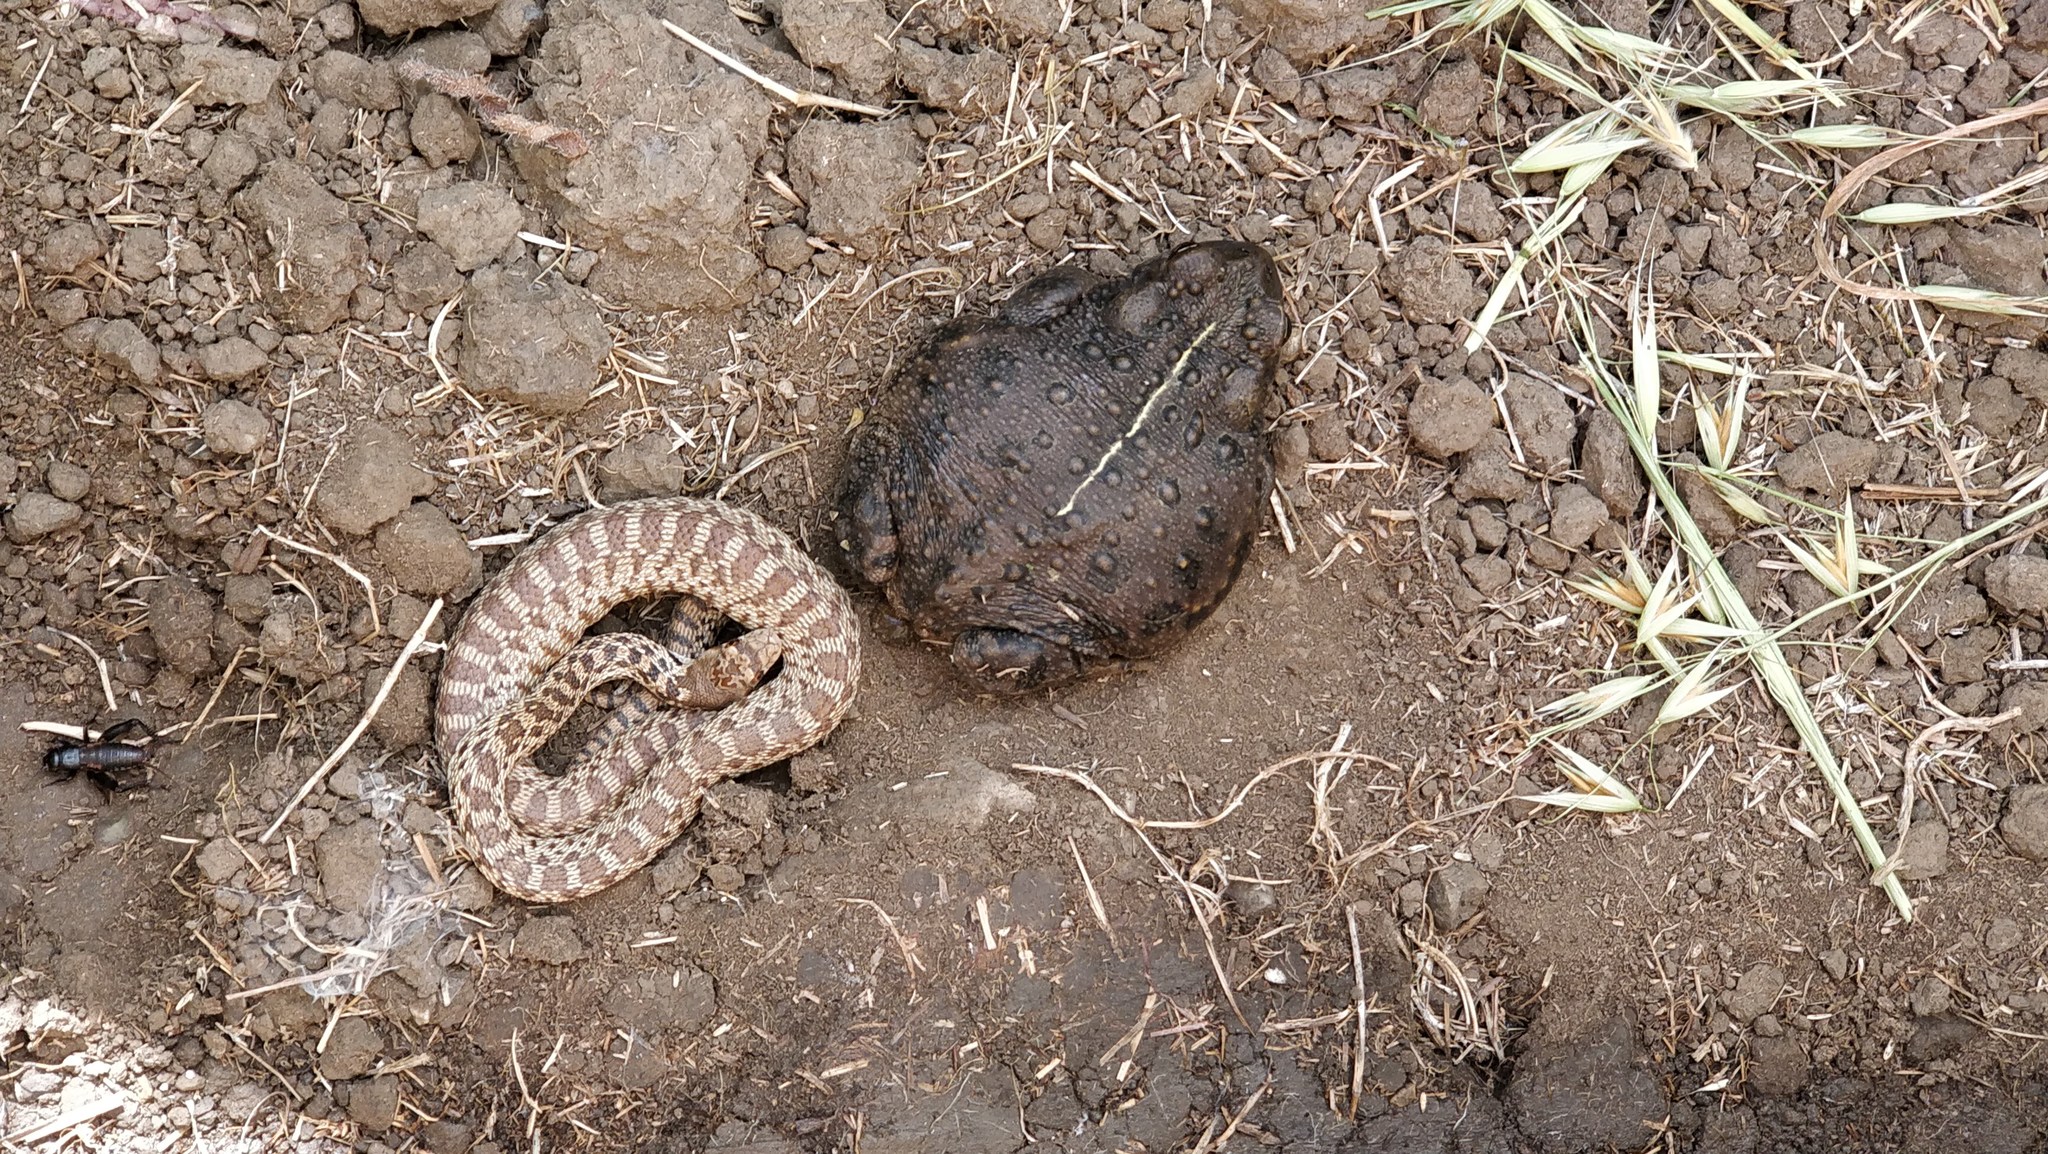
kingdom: Animalia
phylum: Chordata
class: Amphibia
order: Anura
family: Bufonidae
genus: Anaxyrus
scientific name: Anaxyrus boreas
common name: Western toad
